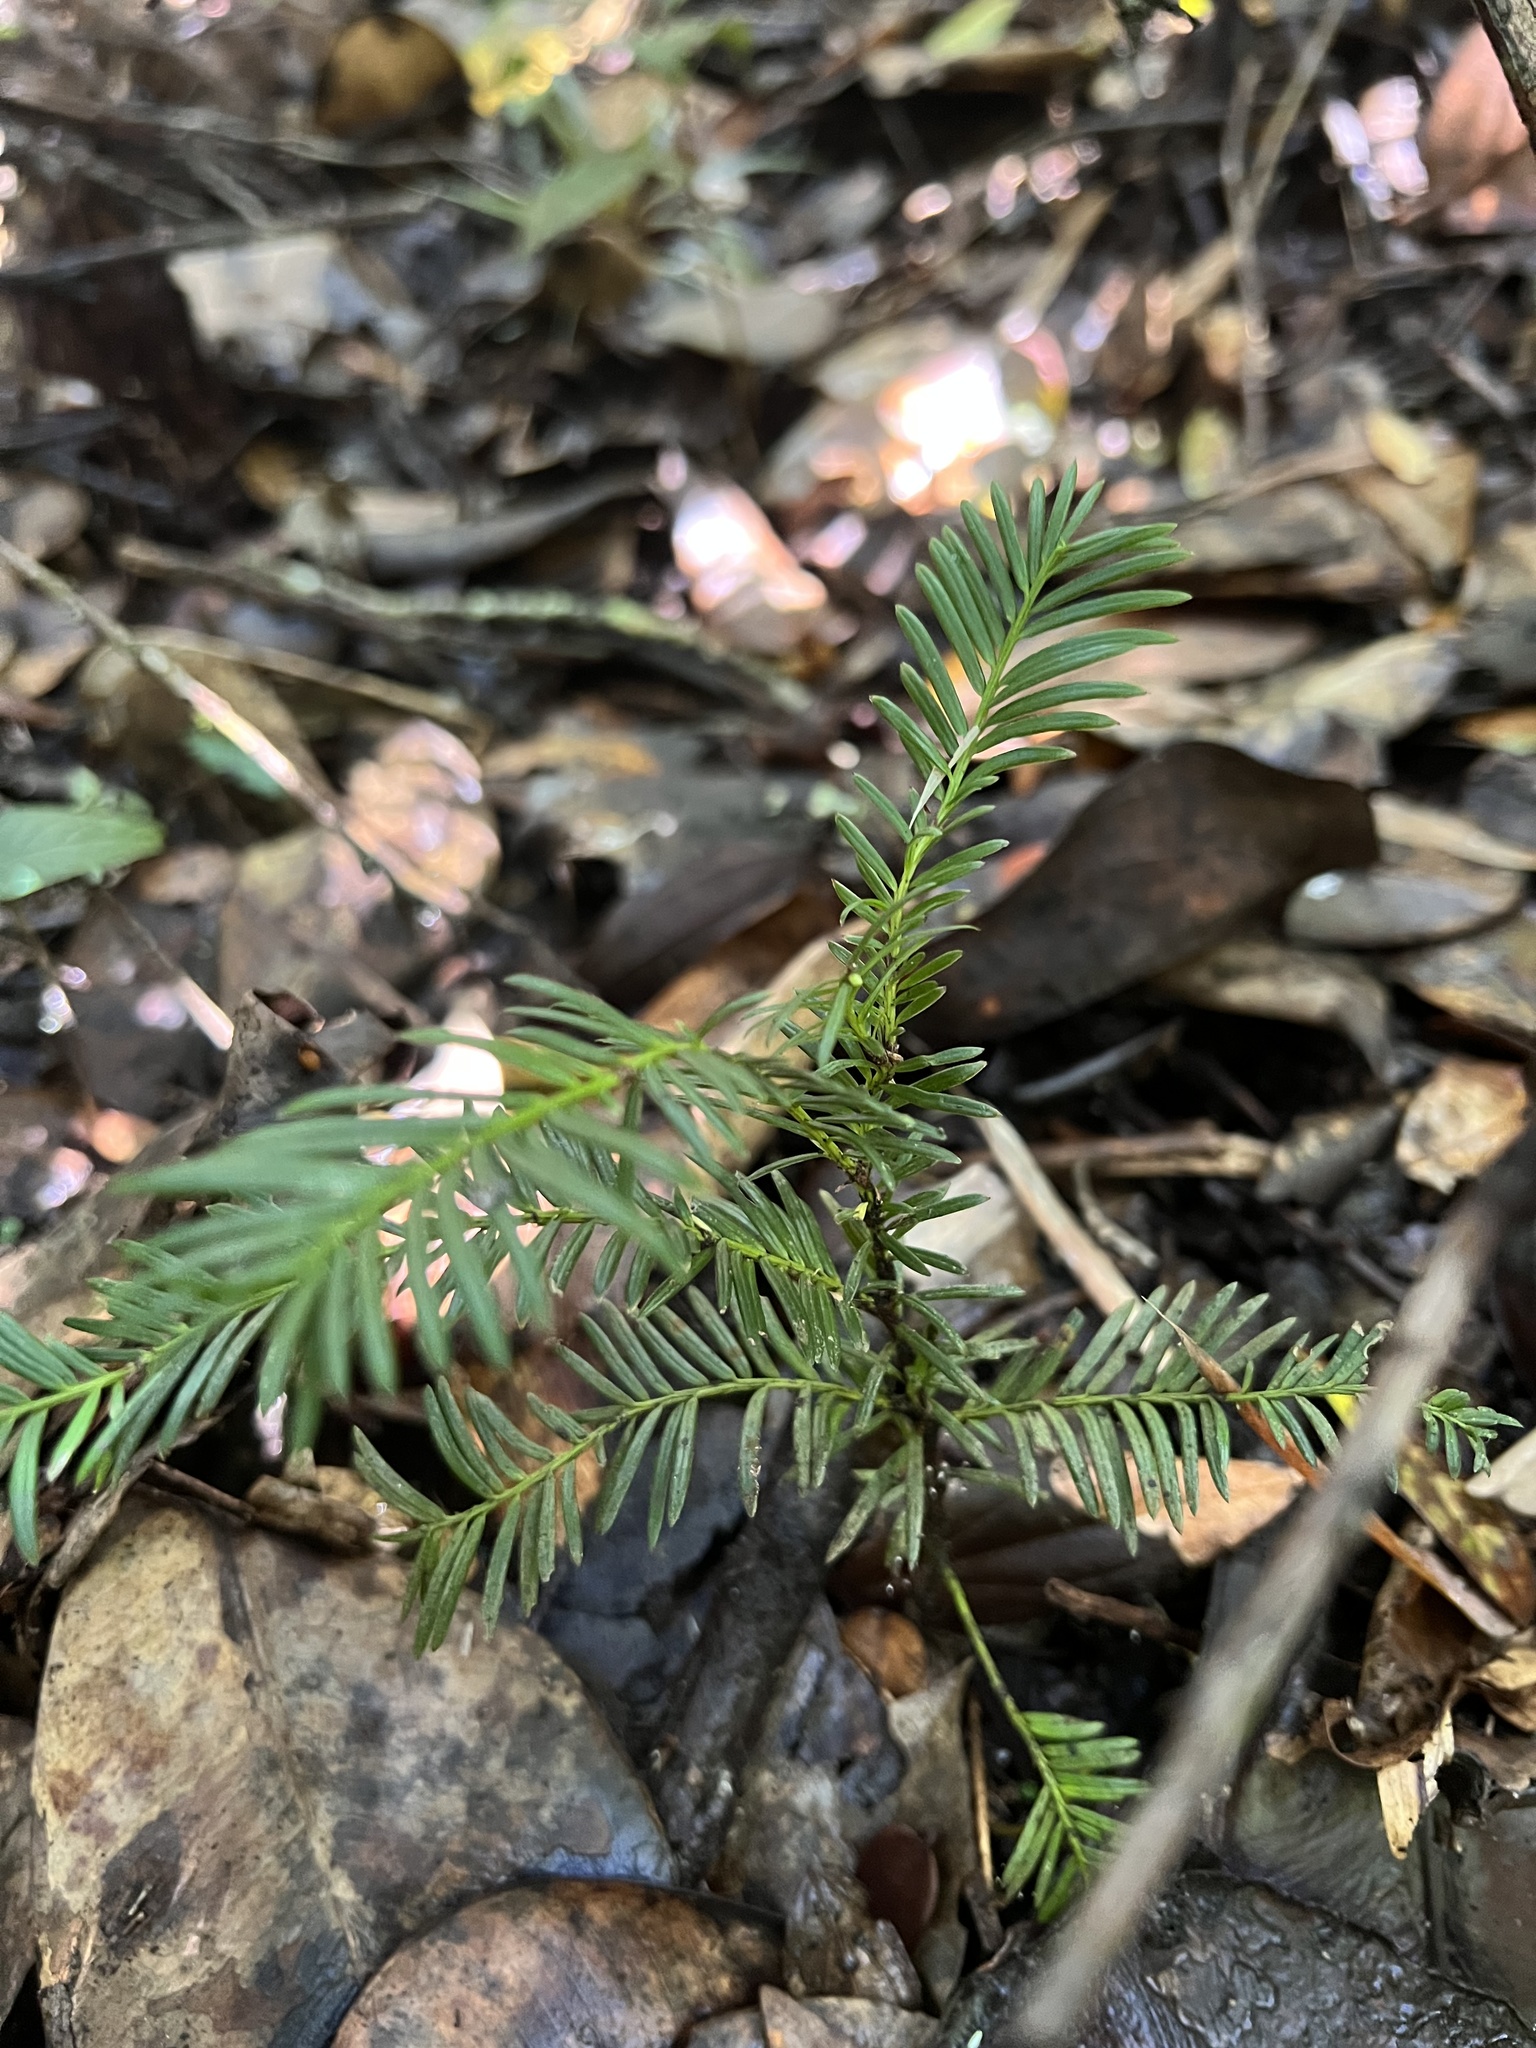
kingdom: Plantae
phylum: Tracheophyta
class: Pinopsida
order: Pinales
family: Podocarpaceae
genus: Prumnopitys
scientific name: Prumnopitys montana
